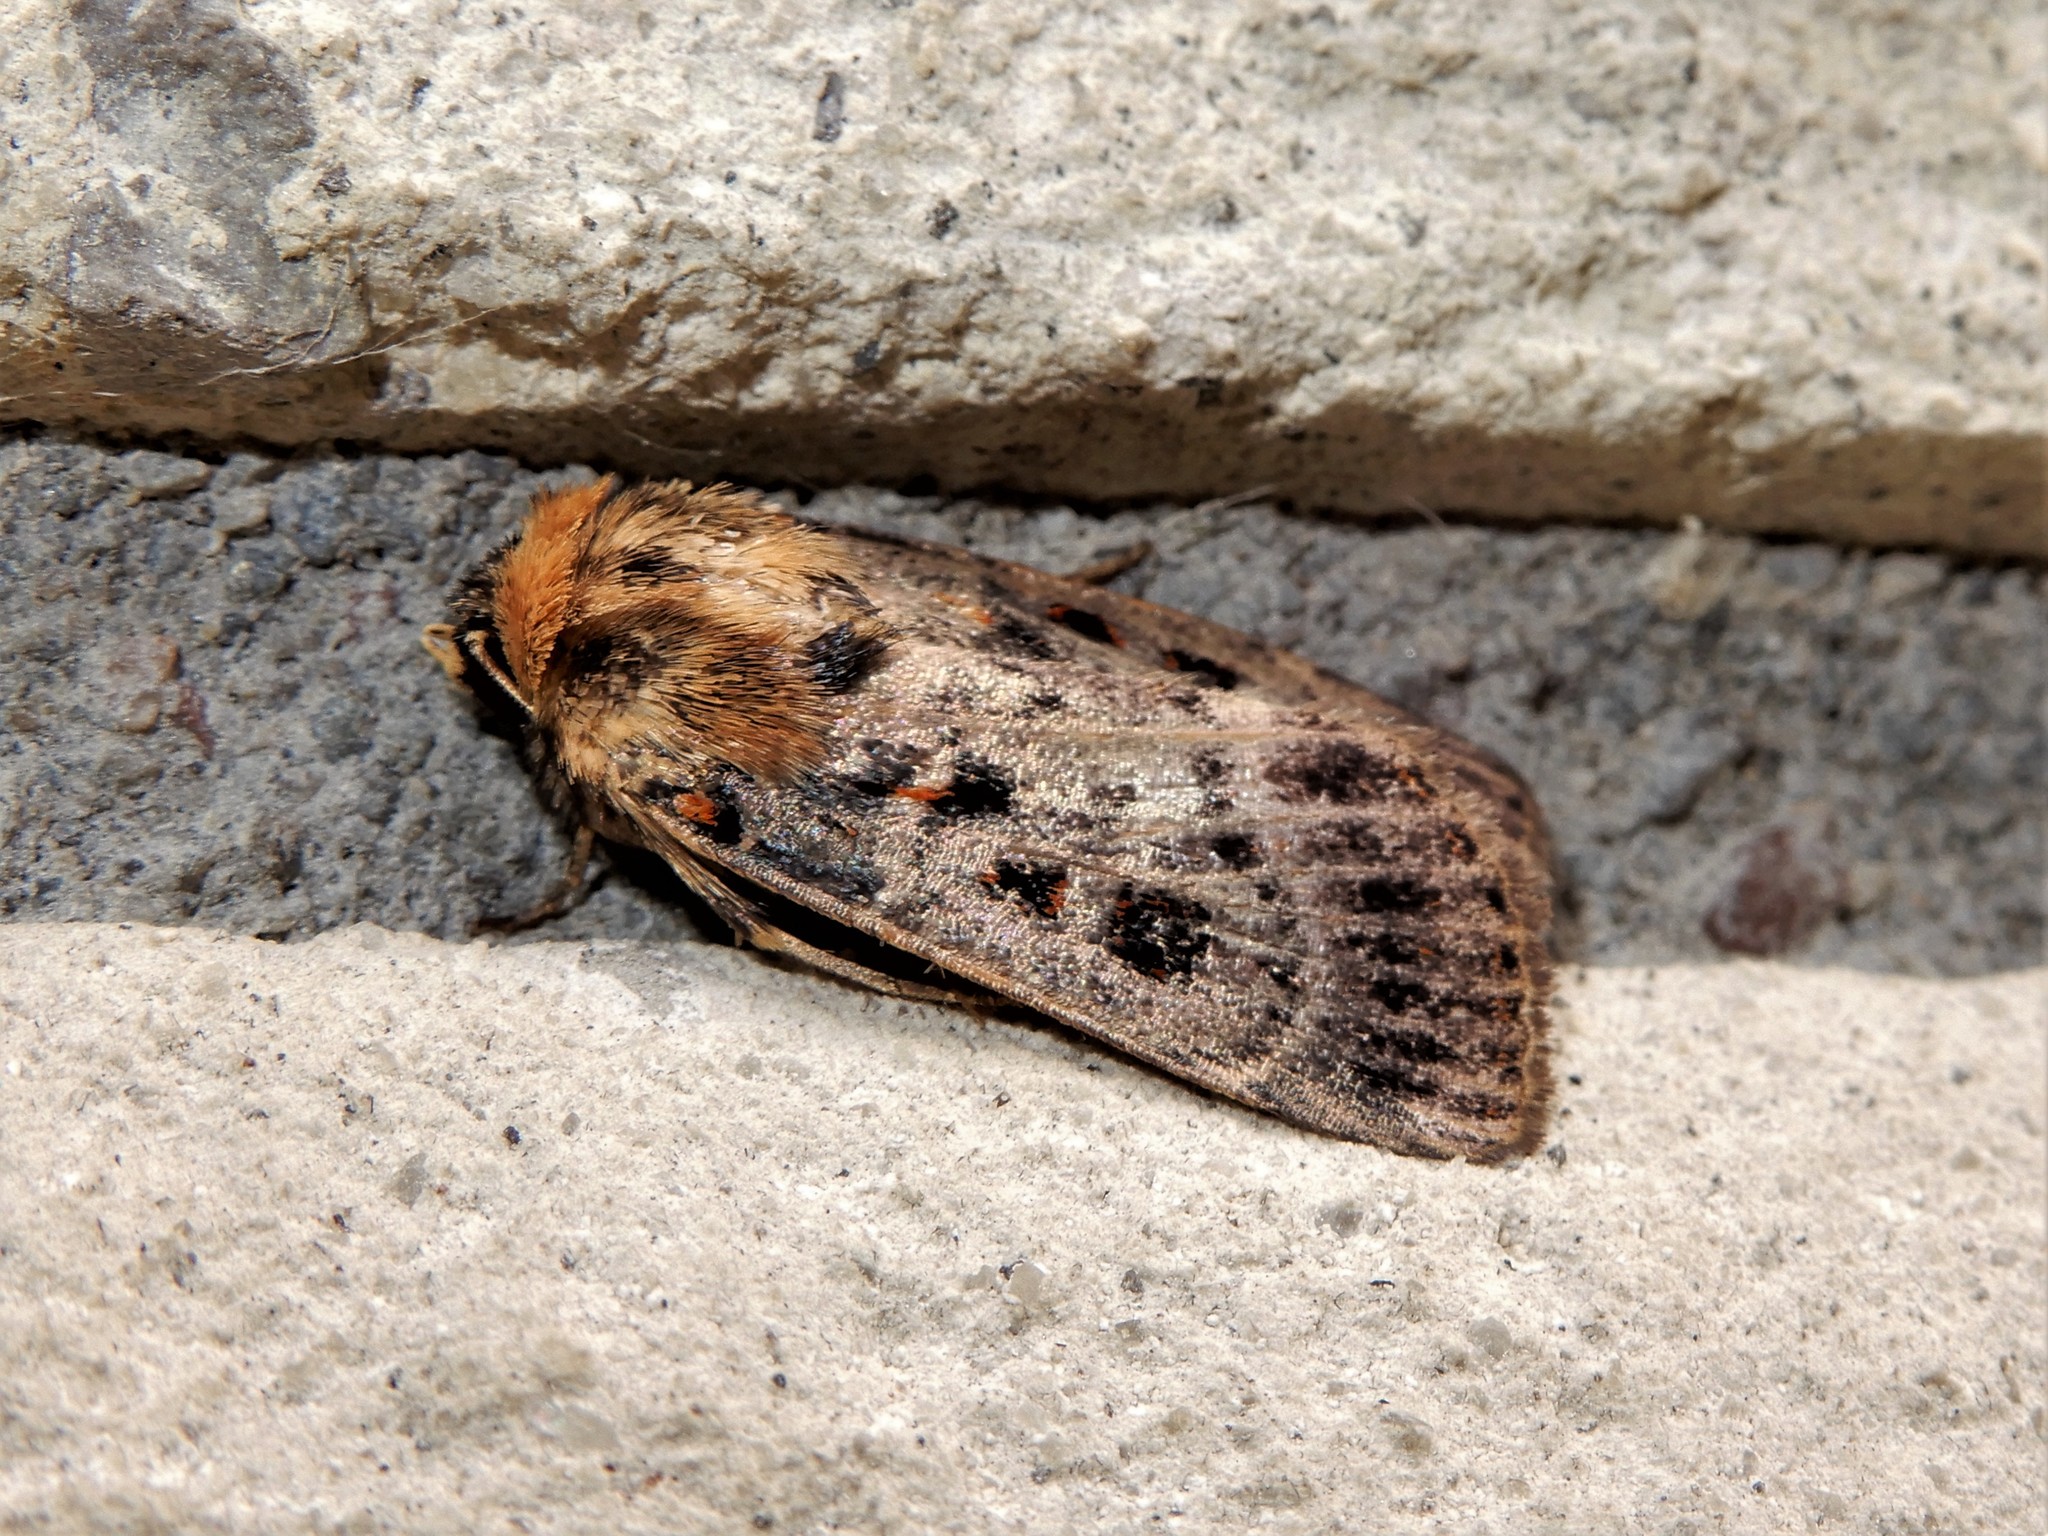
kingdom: Animalia
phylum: Arthropoda
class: Insecta
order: Lepidoptera
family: Noctuidae
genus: Proteuxoa
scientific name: Proteuxoa sanguinipuncta
